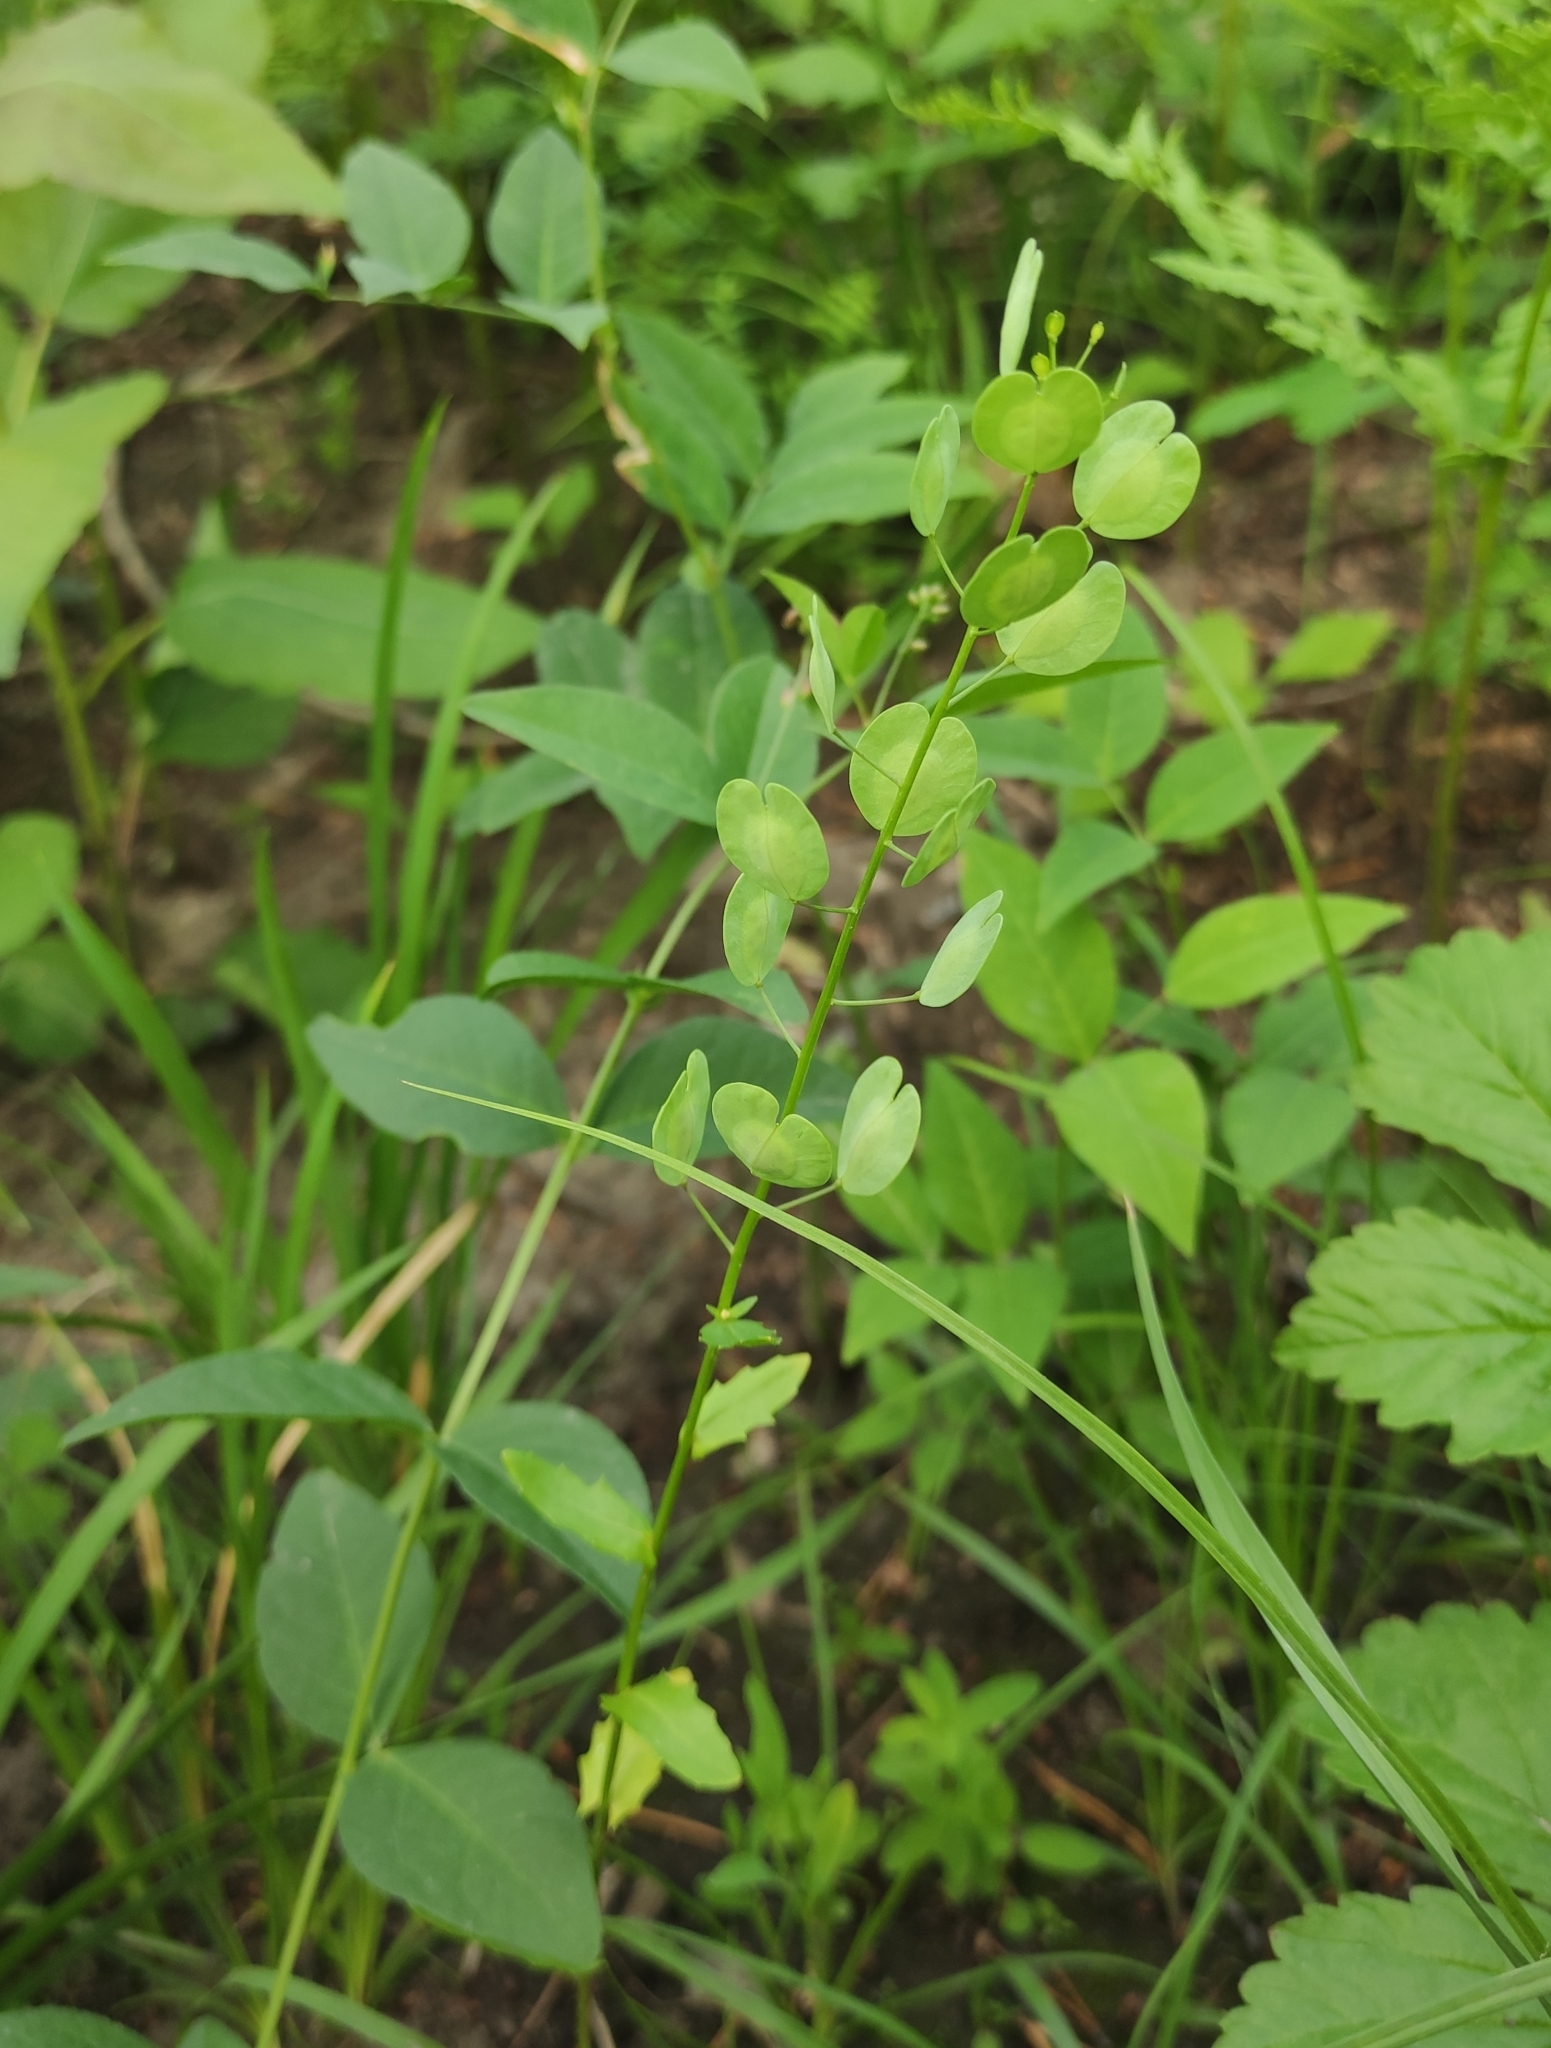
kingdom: Plantae
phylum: Tracheophyta
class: Magnoliopsida
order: Brassicales
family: Brassicaceae
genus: Thlaspi
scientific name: Thlaspi arvense
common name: Field pennycress
